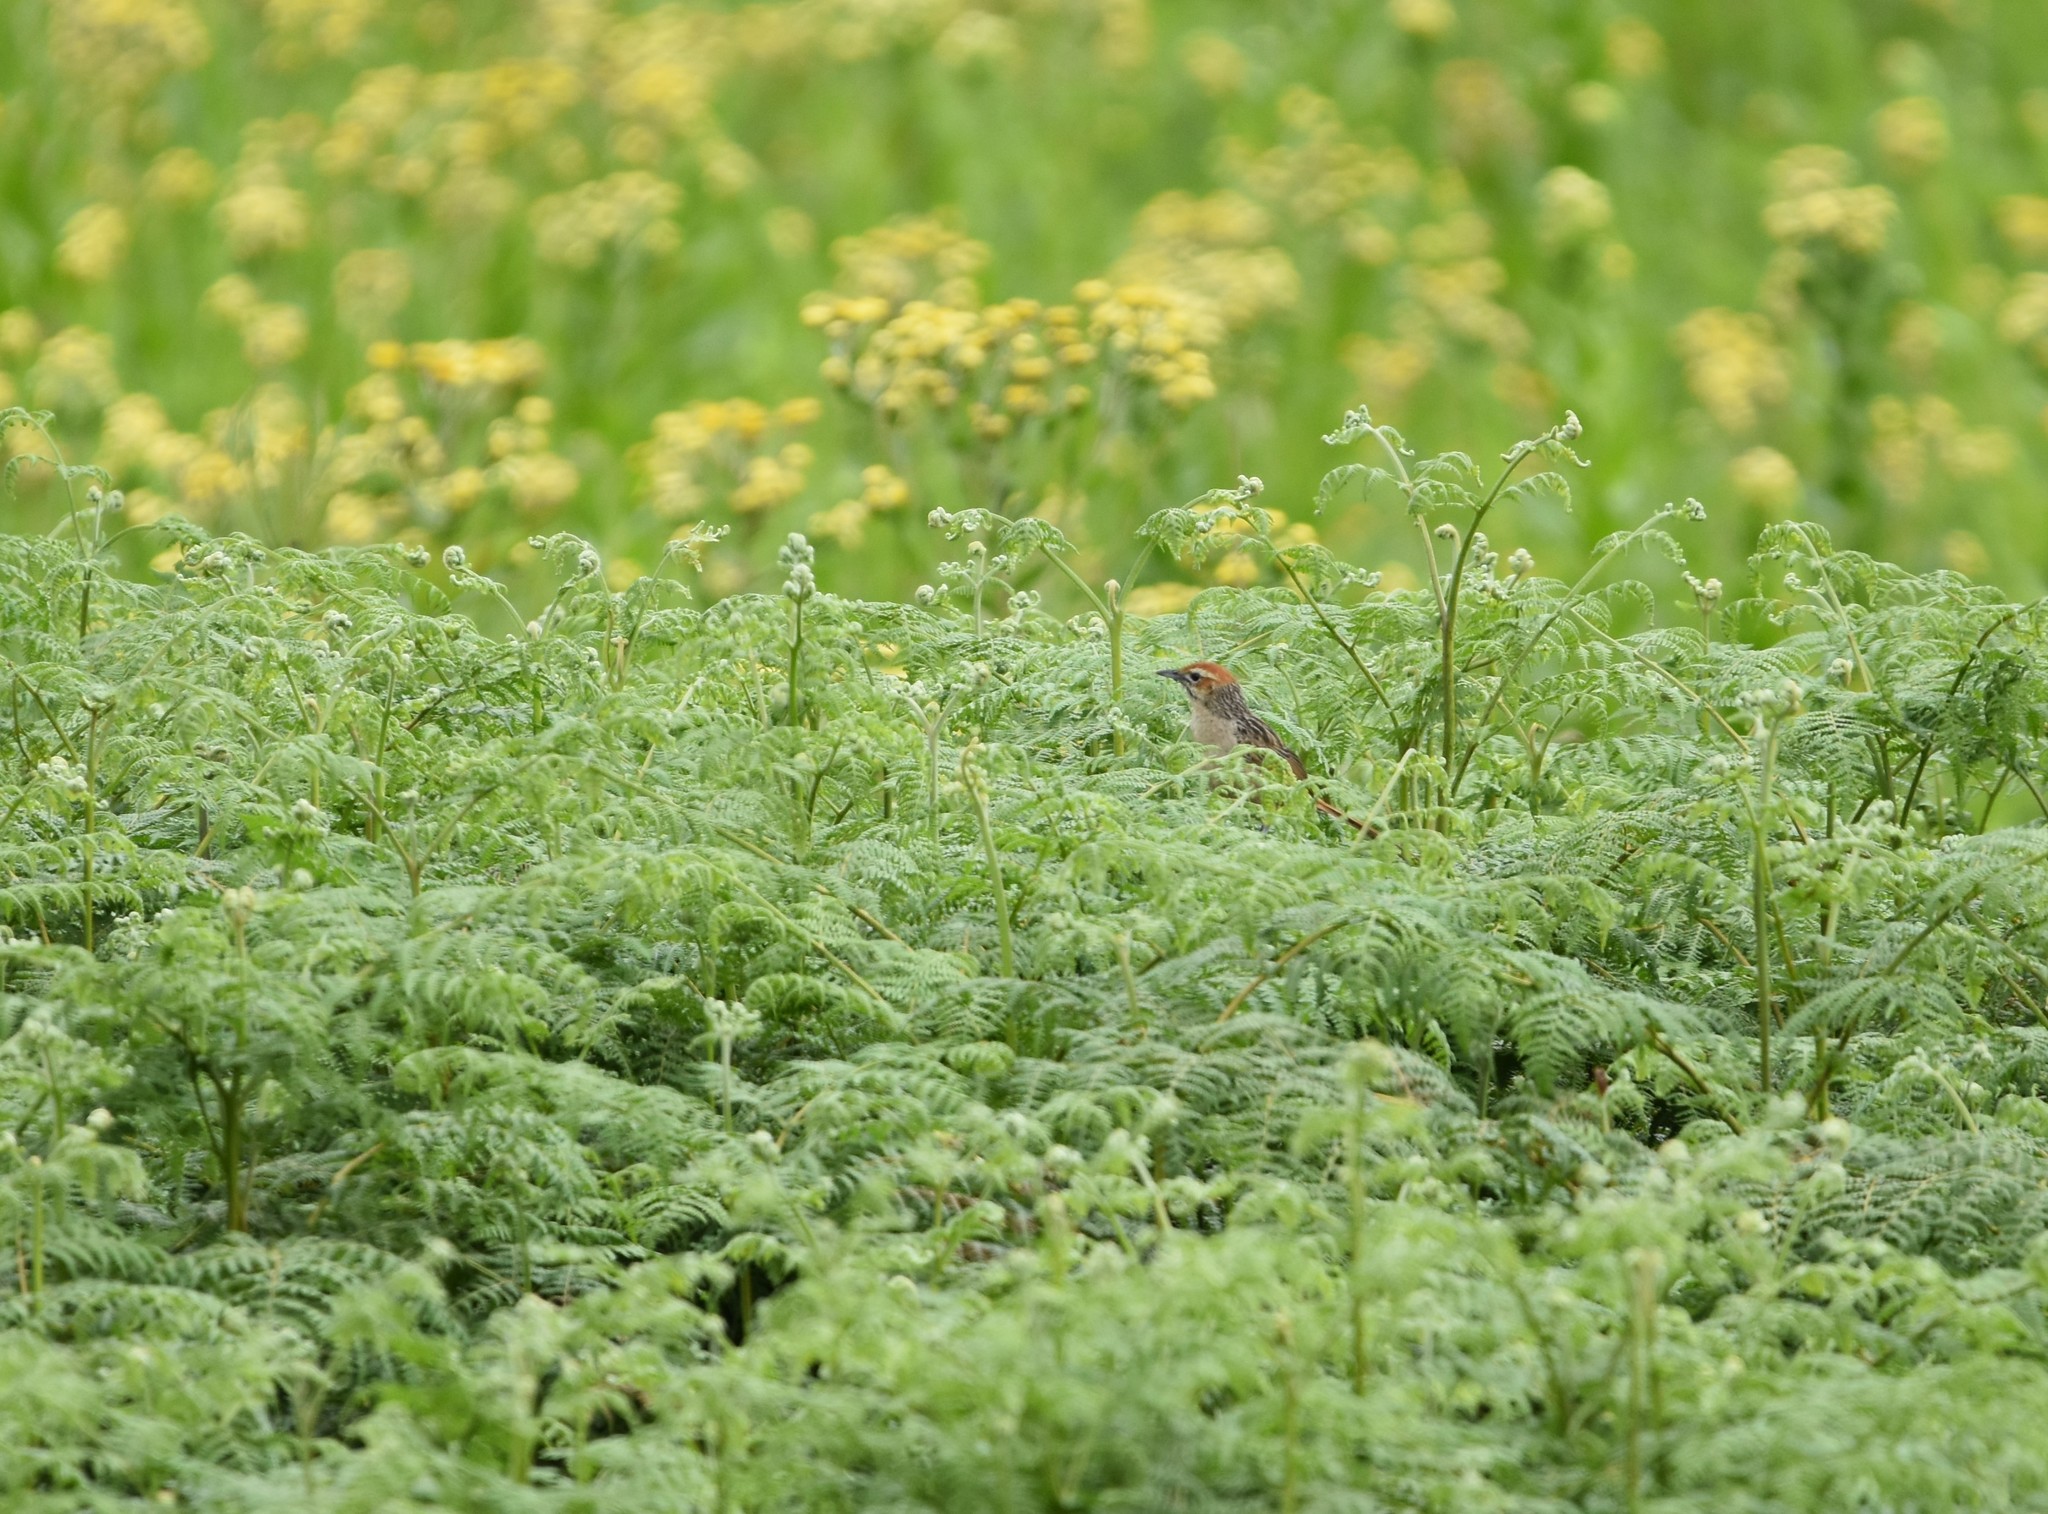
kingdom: Animalia
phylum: Chordata
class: Aves
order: Passeriformes
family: Macrosphenidae
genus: Sphenoeacus
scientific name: Sphenoeacus afer
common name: Cape grassbird
